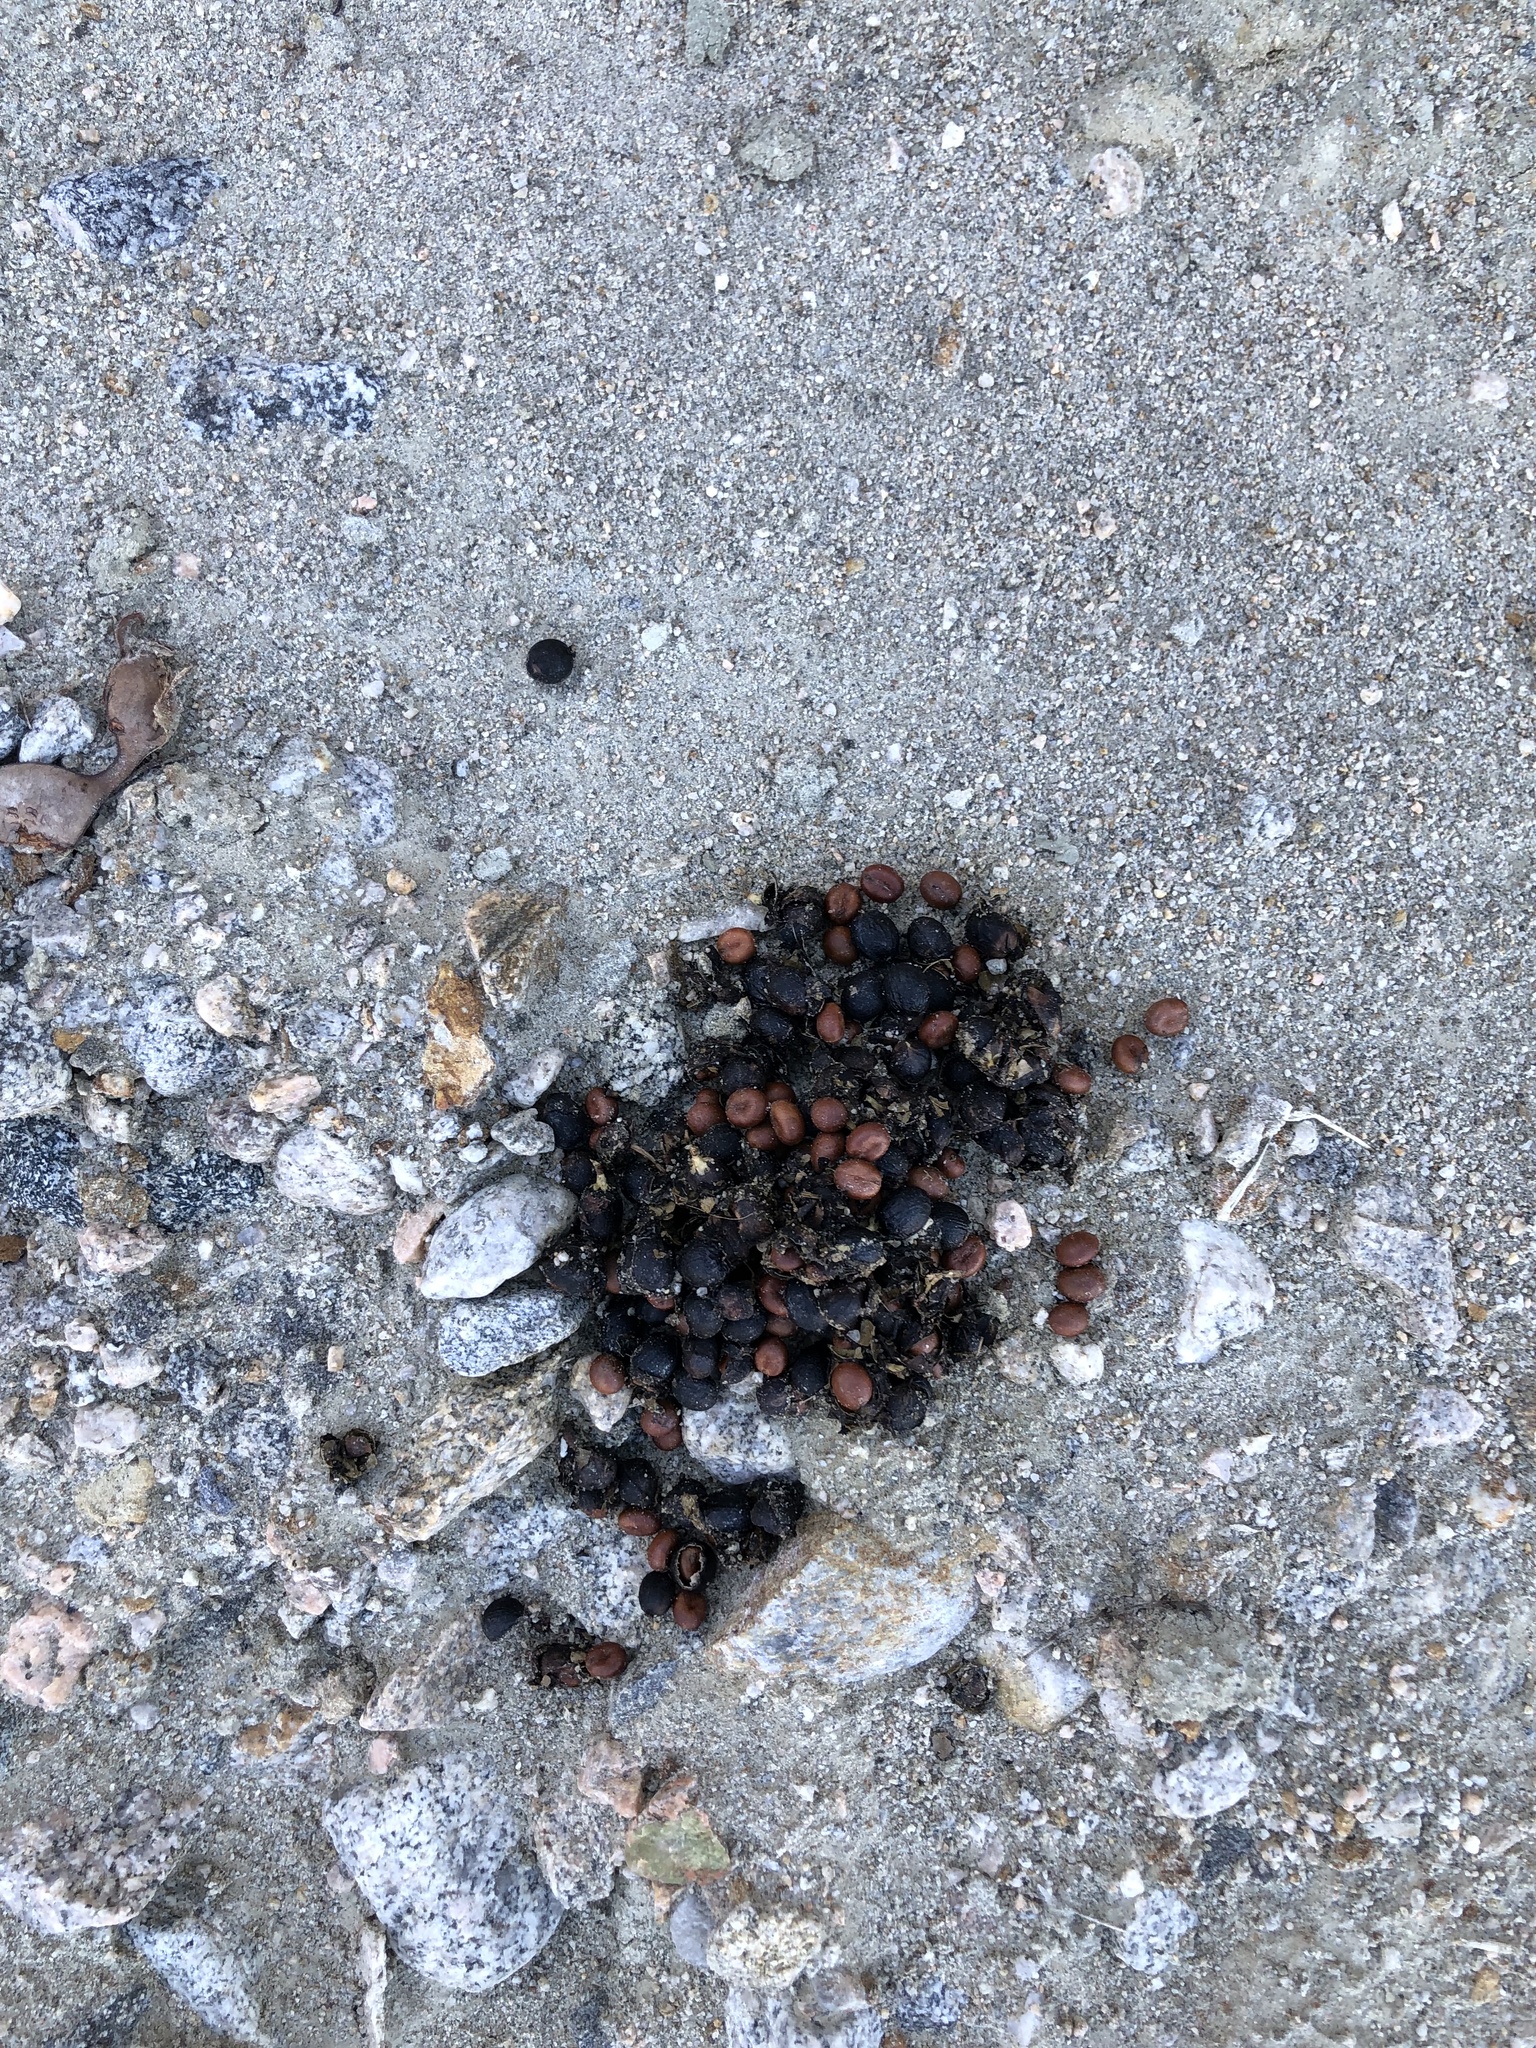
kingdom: Animalia
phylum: Chordata
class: Mammalia
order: Carnivora
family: Canidae
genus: Canis
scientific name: Canis latrans
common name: Coyote
